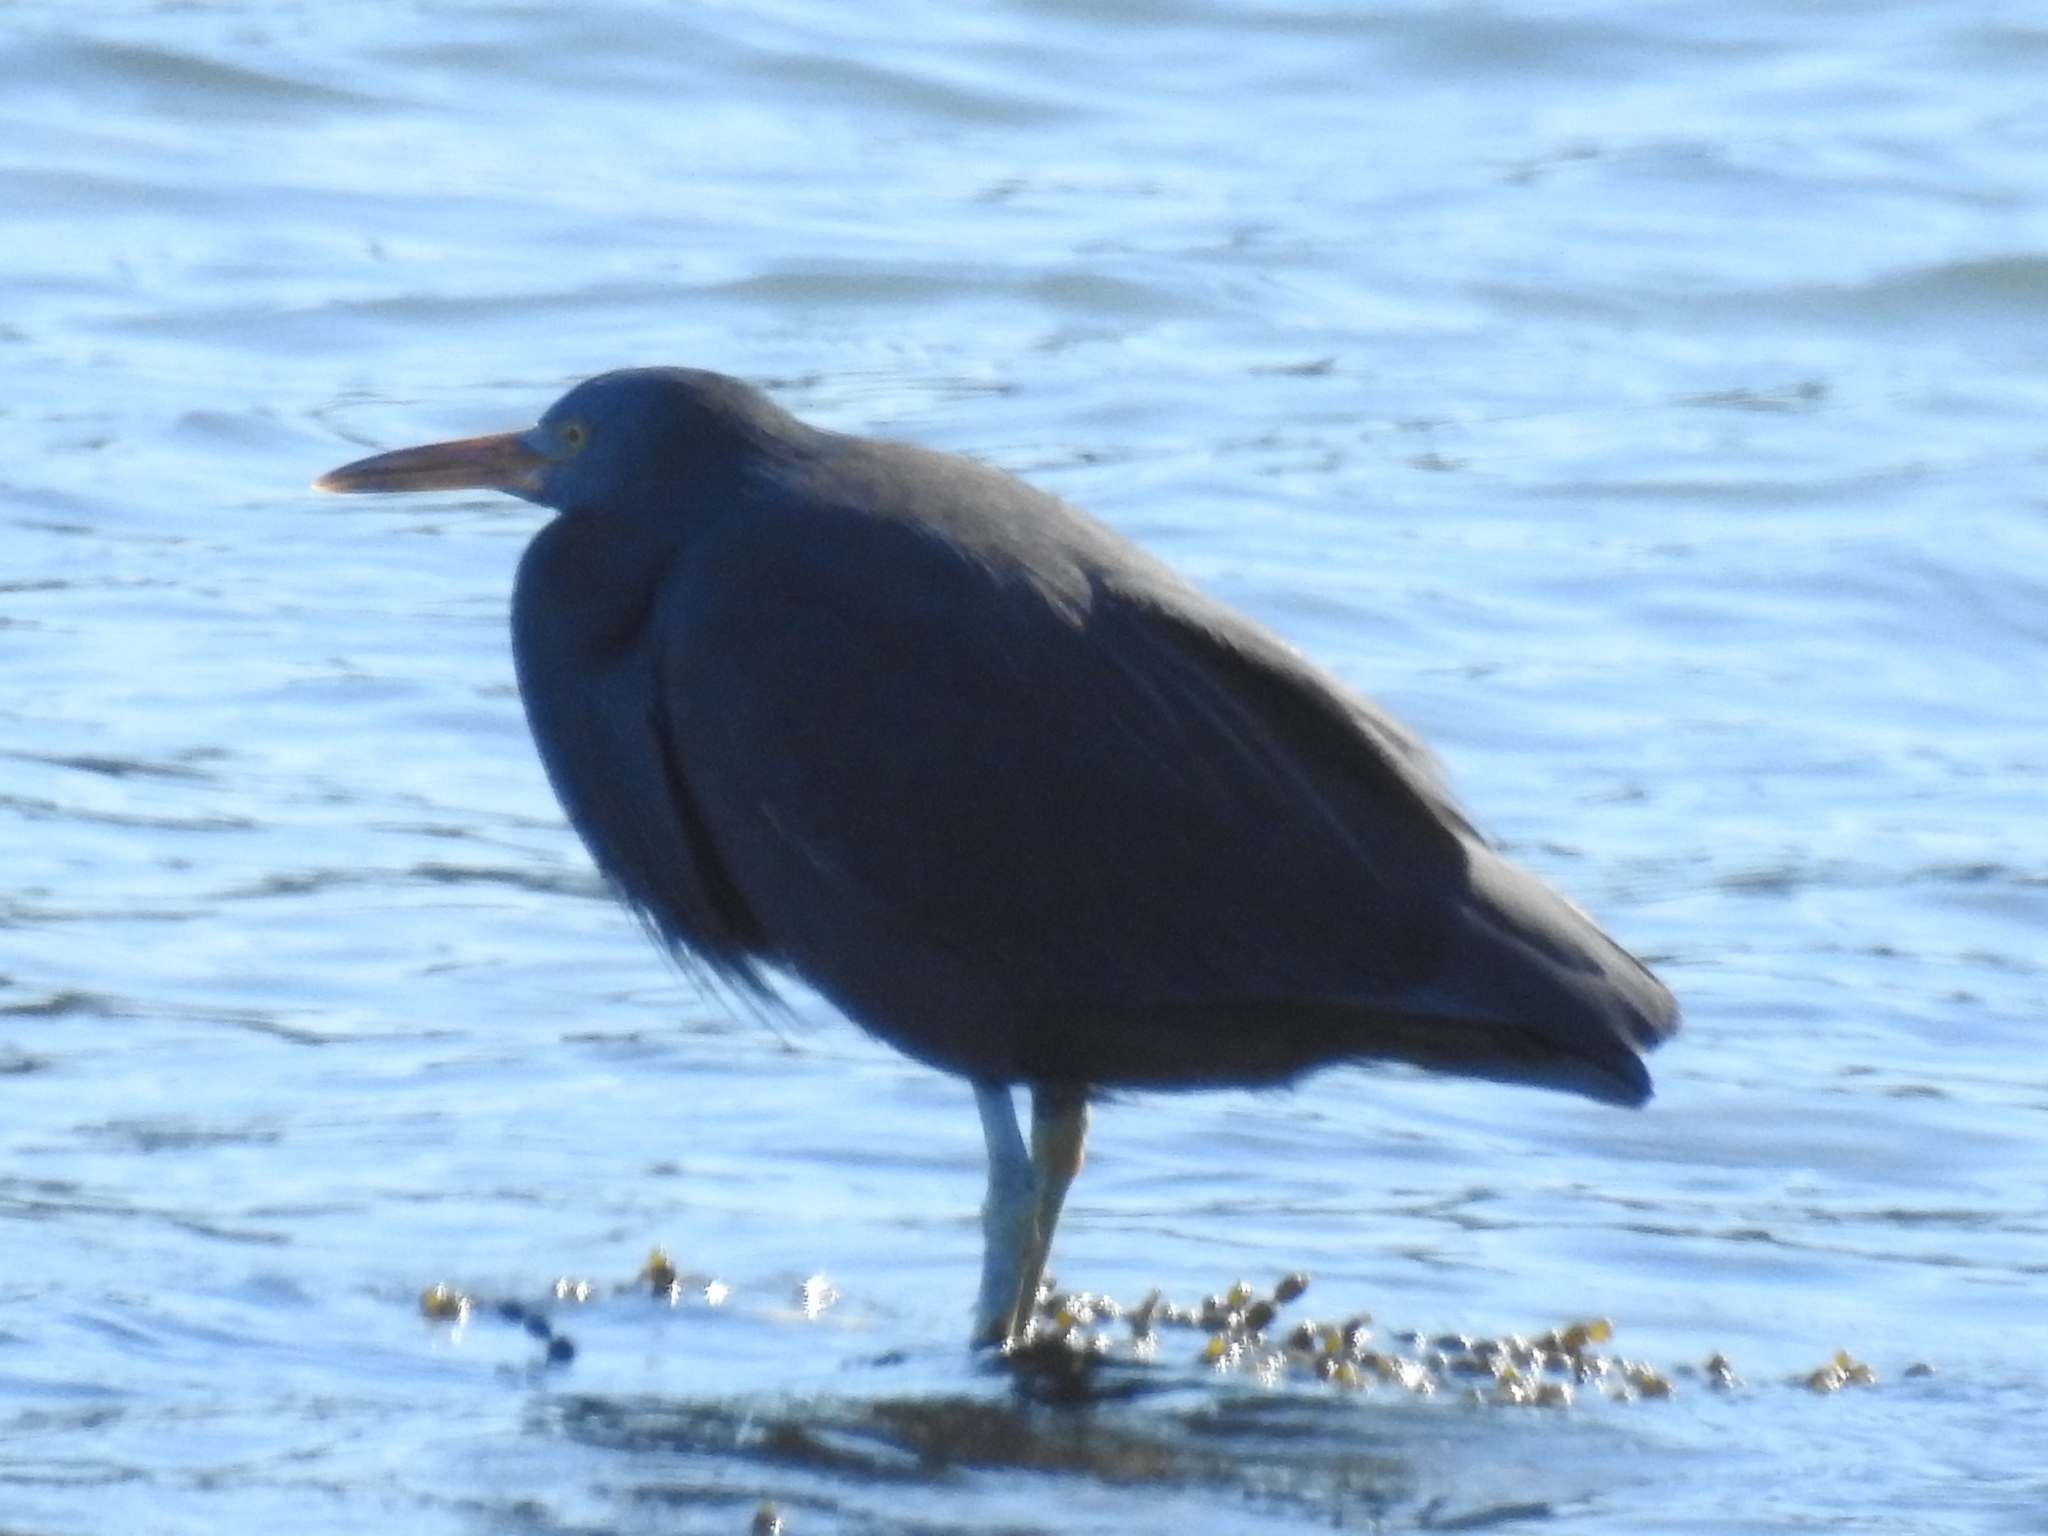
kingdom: Animalia
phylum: Chordata
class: Aves
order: Pelecaniformes
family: Ardeidae
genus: Egretta
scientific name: Egretta sacra
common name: Pacific reef heron
